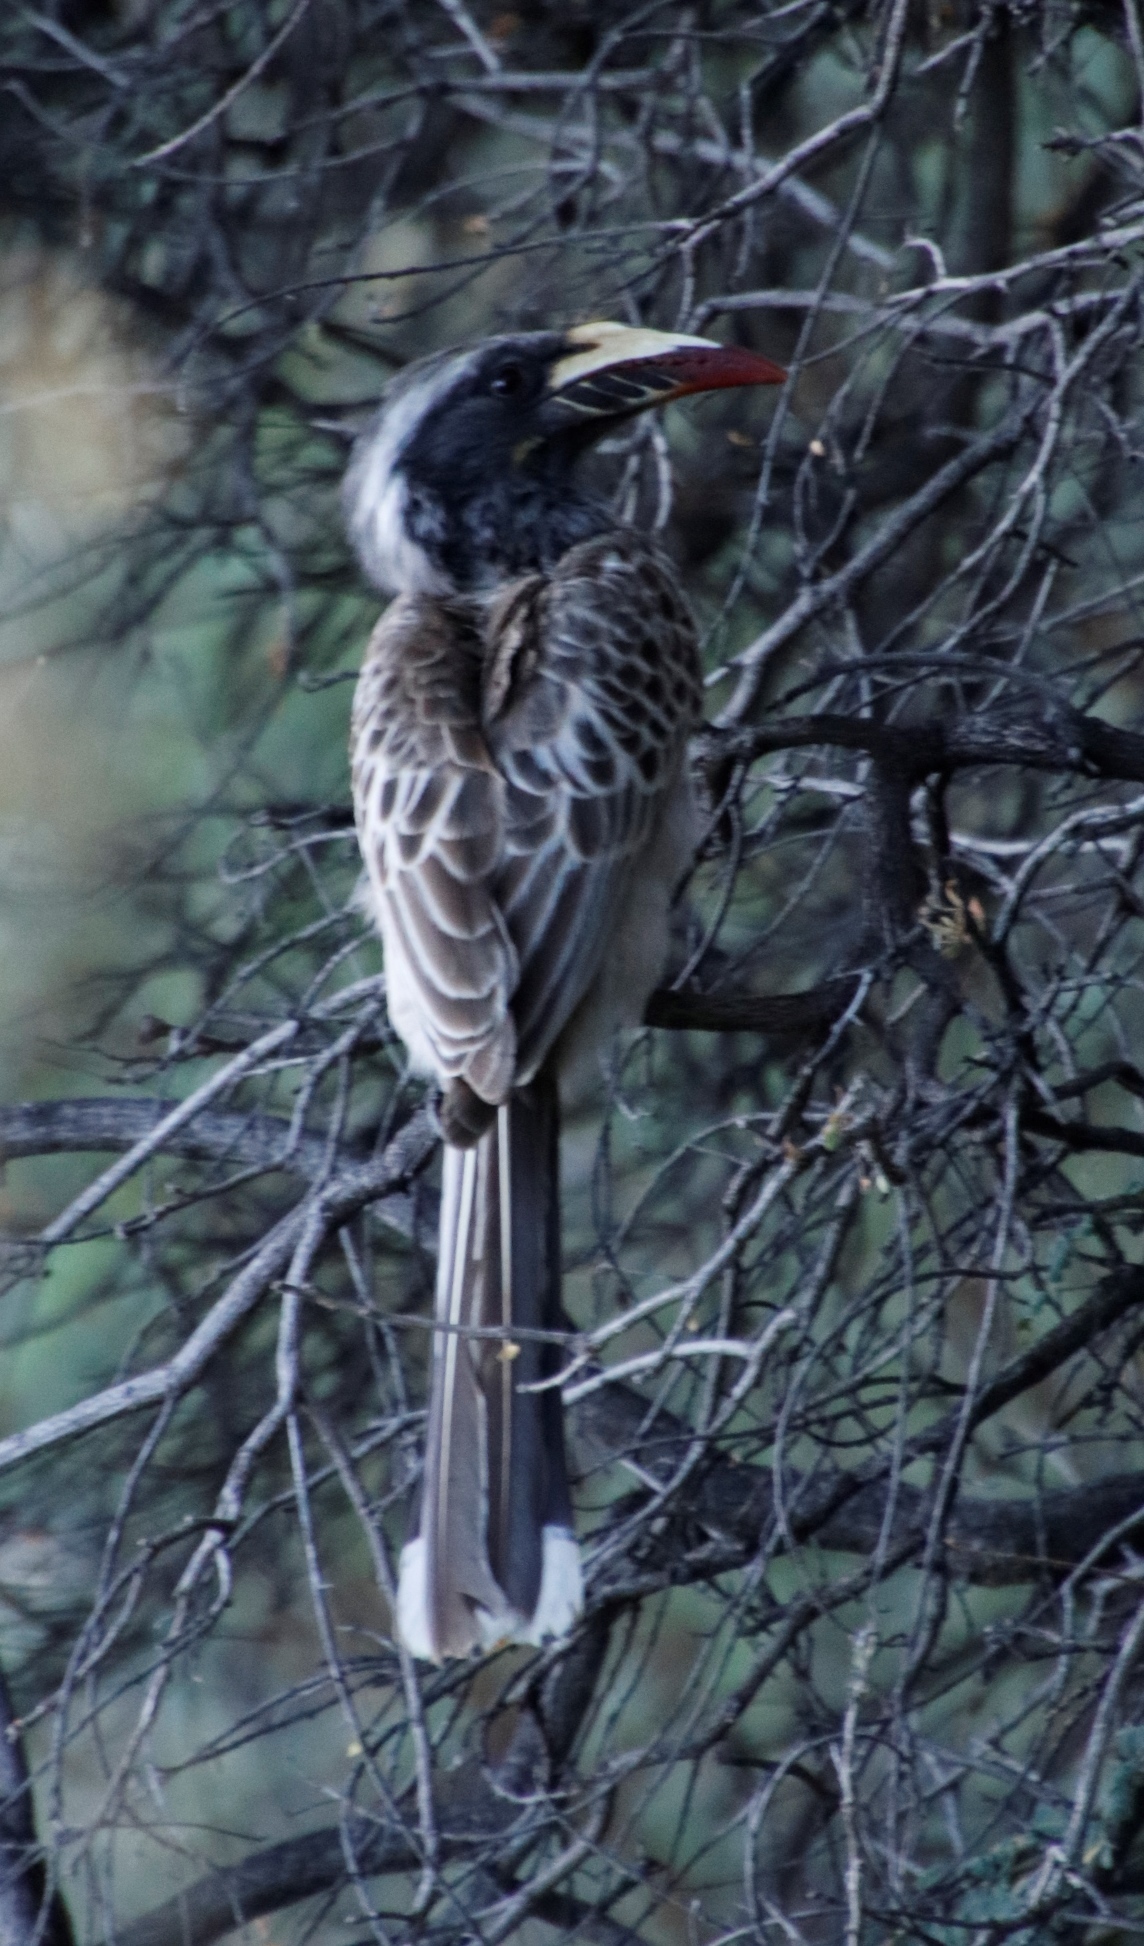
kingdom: Animalia
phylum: Chordata
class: Aves
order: Bucerotiformes
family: Bucerotidae
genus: Lophoceros
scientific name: Lophoceros nasutus
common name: African grey hornbill
